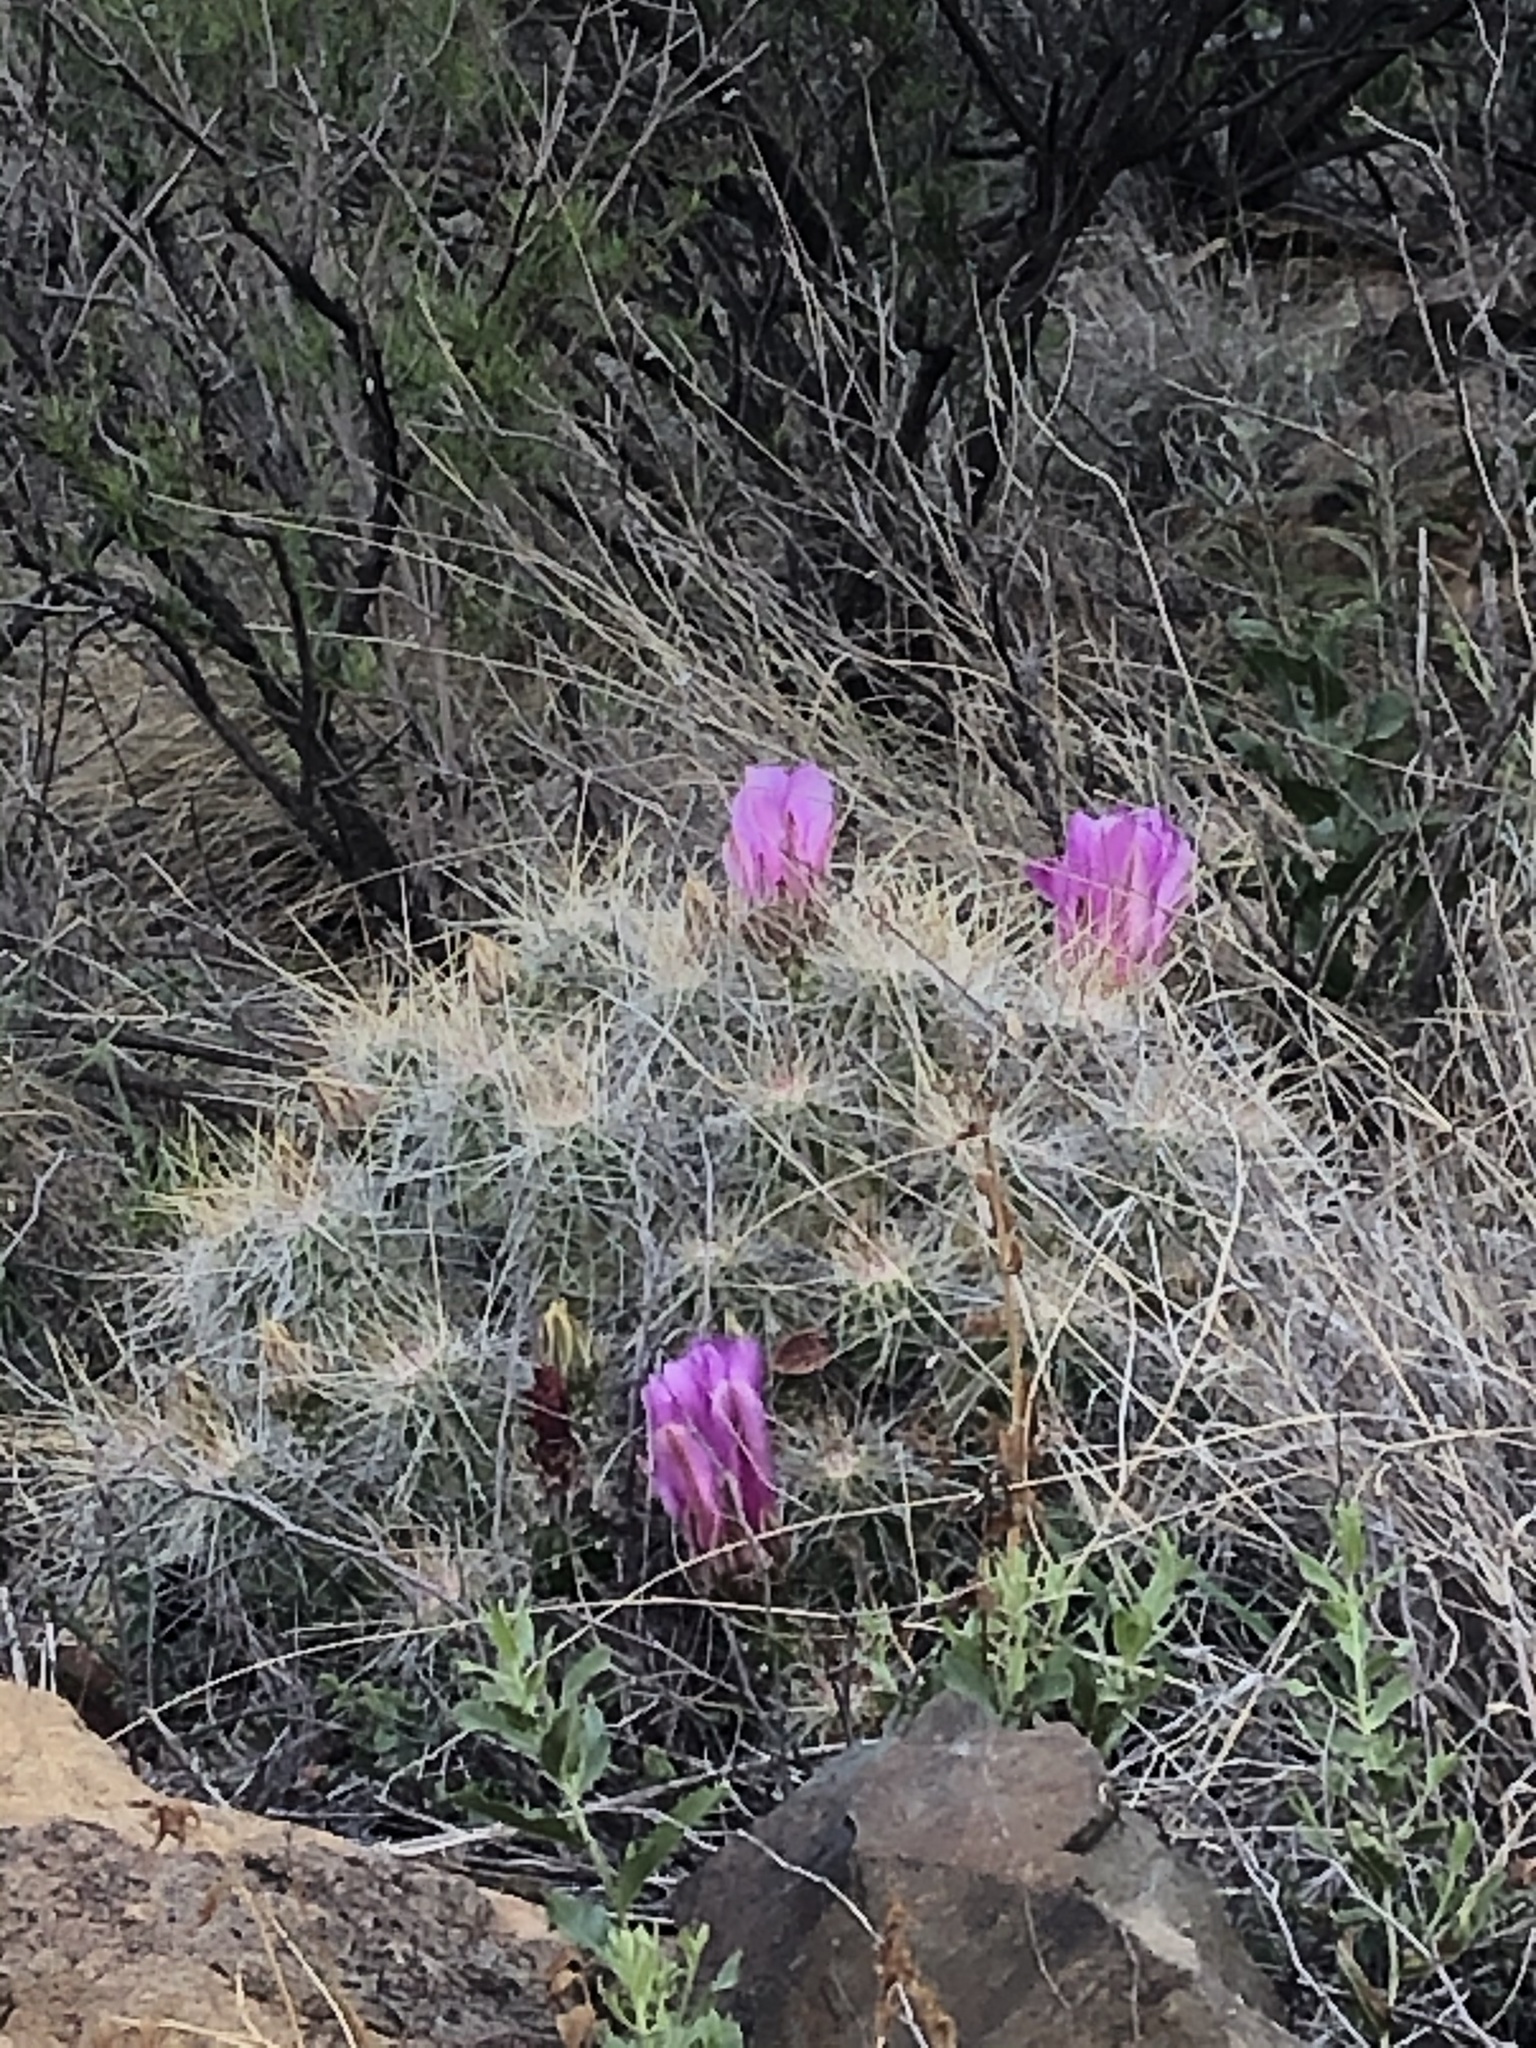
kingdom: Plantae
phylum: Tracheophyta
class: Magnoliopsida
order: Caryophyllales
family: Cactaceae
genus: Echinocereus
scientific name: Echinocereus stramineus
